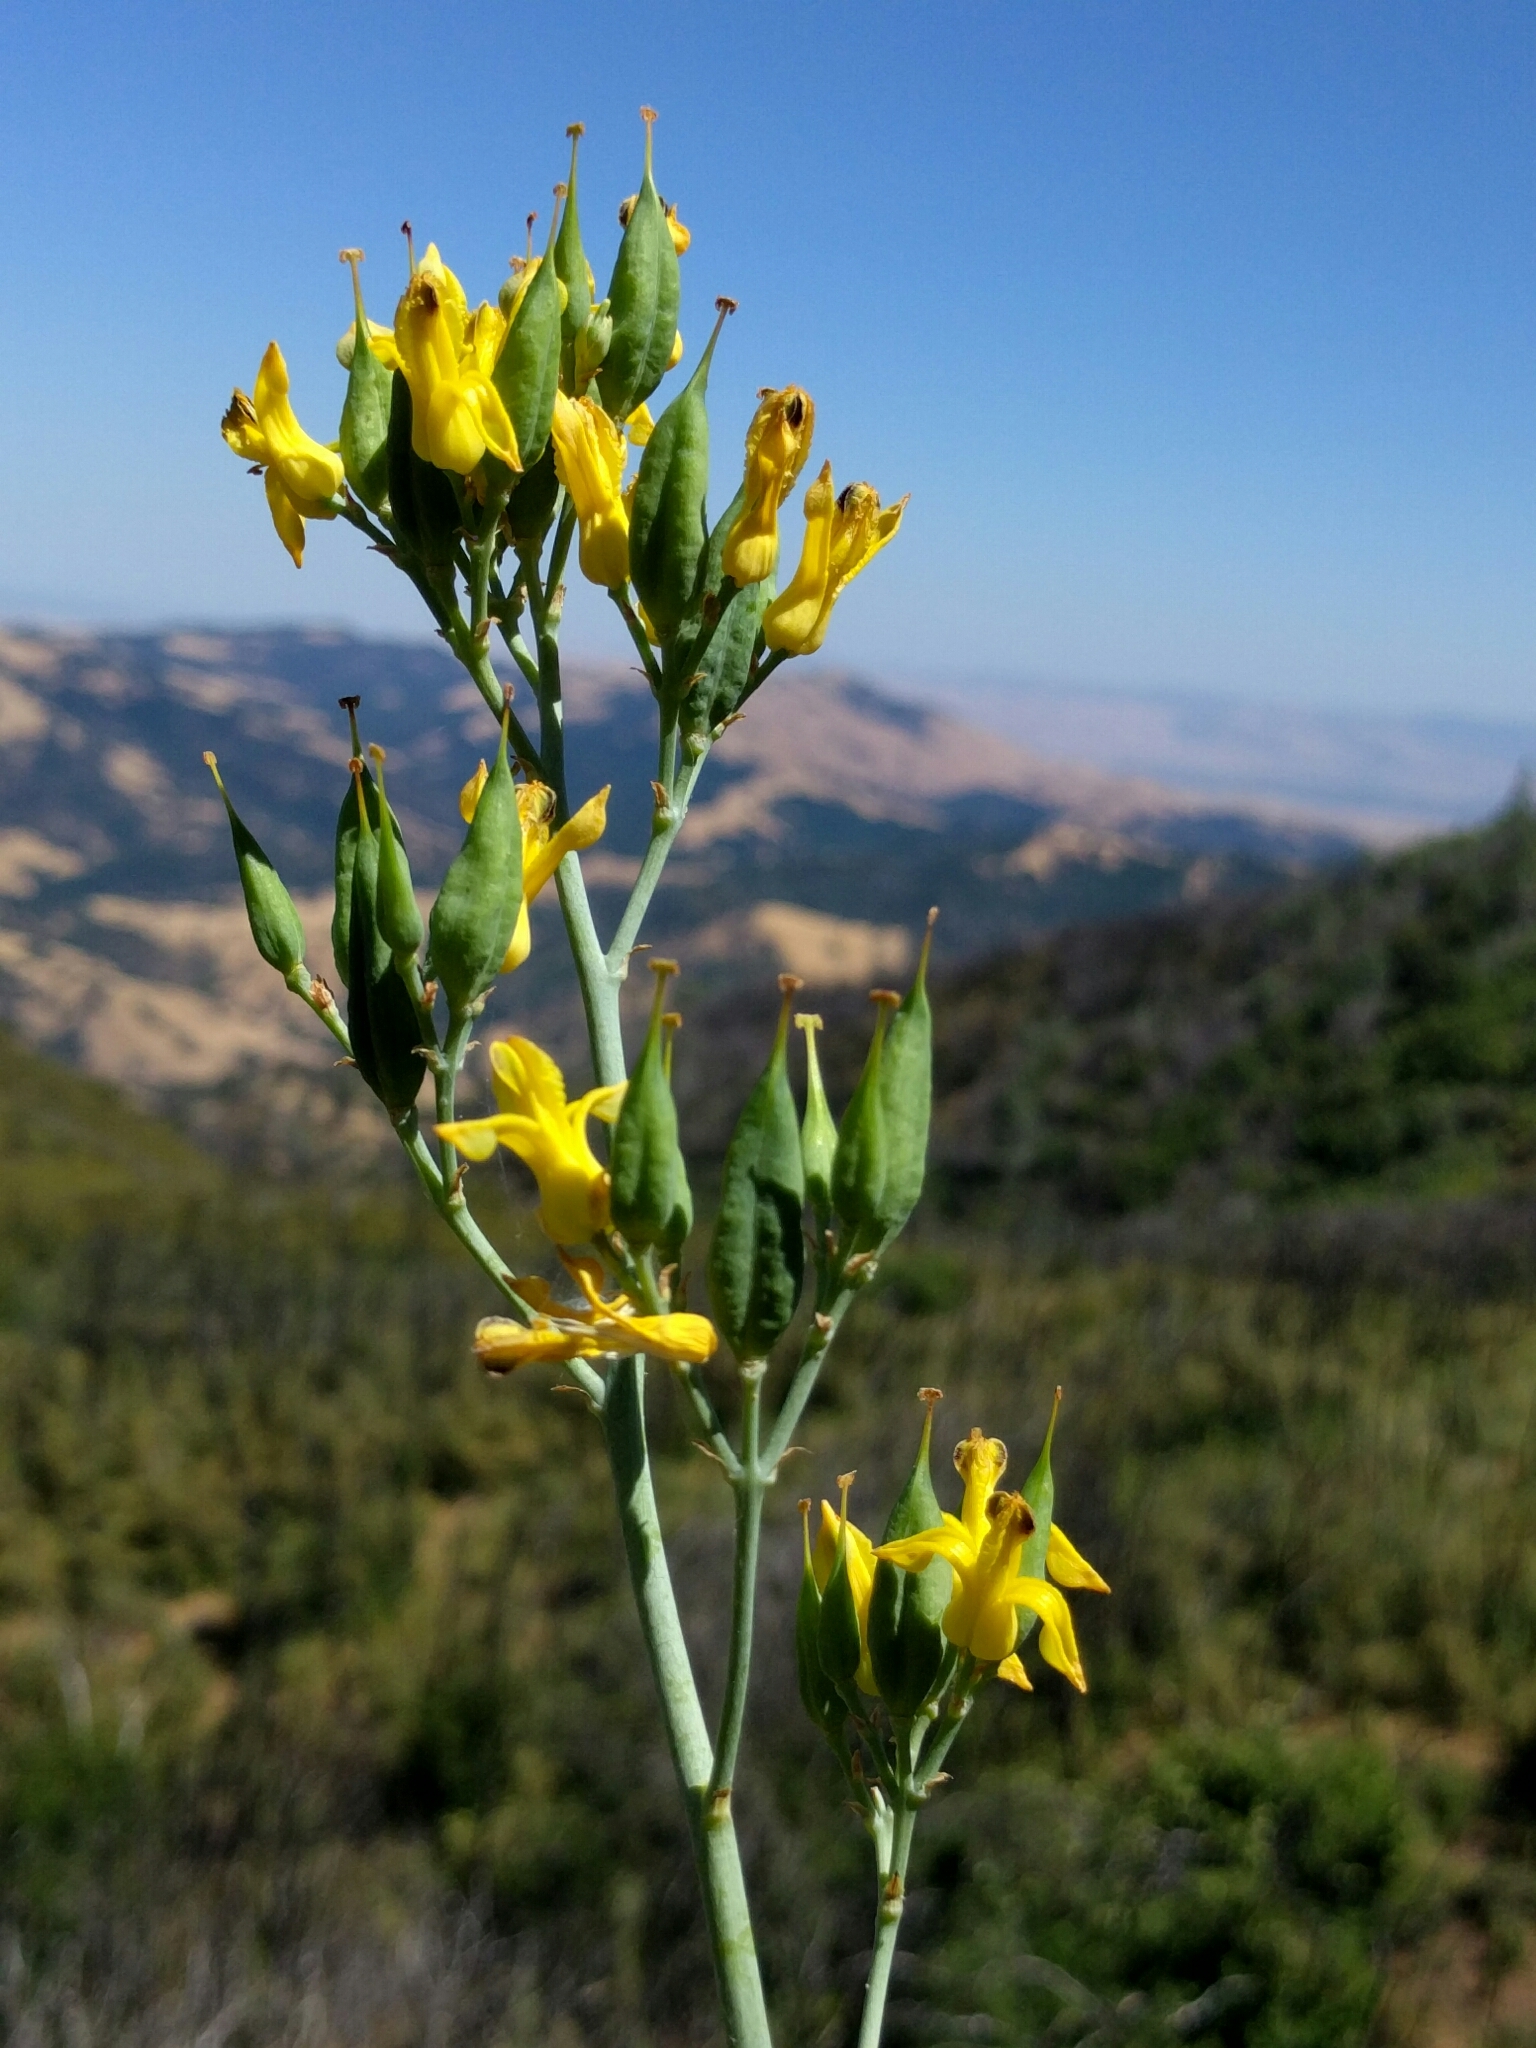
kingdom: Plantae
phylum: Tracheophyta
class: Magnoliopsida
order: Ranunculales
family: Papaveraceae
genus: Ehrendorferia
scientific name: Ehrendorferia chrysantha
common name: Golden eardrops
